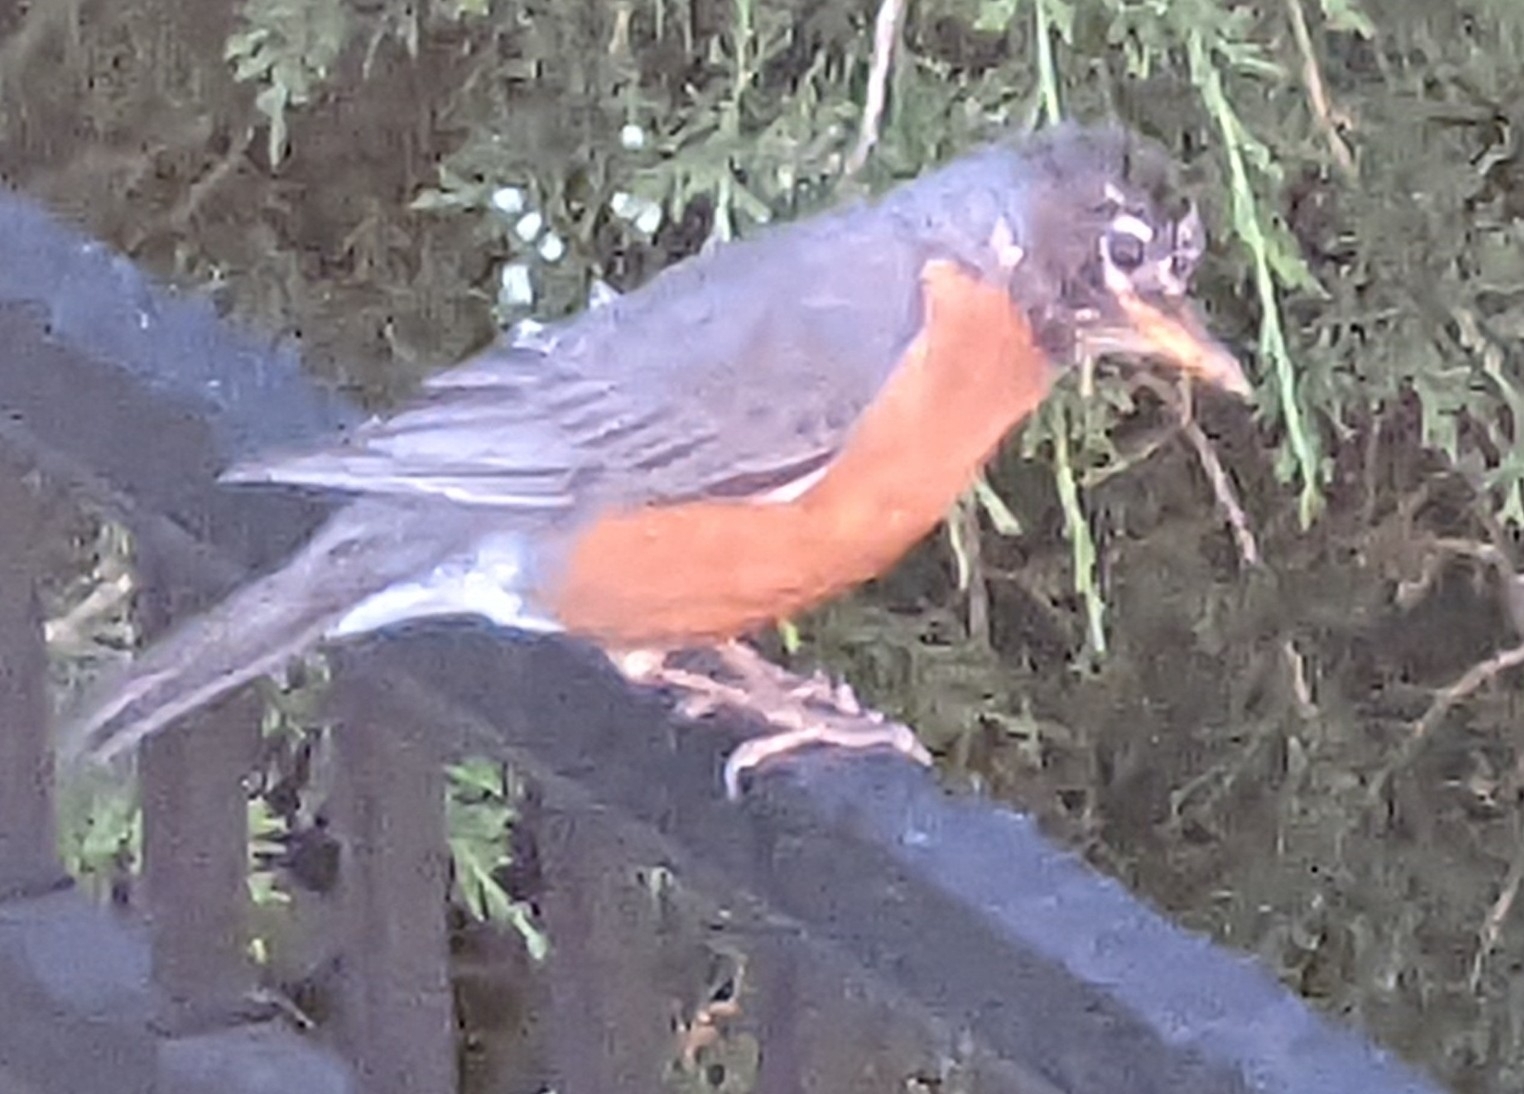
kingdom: Animalia
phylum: Chordata
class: Aves
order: Passeriformes
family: Turdidae
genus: Turdus
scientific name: Turdus migratorius
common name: American robin
